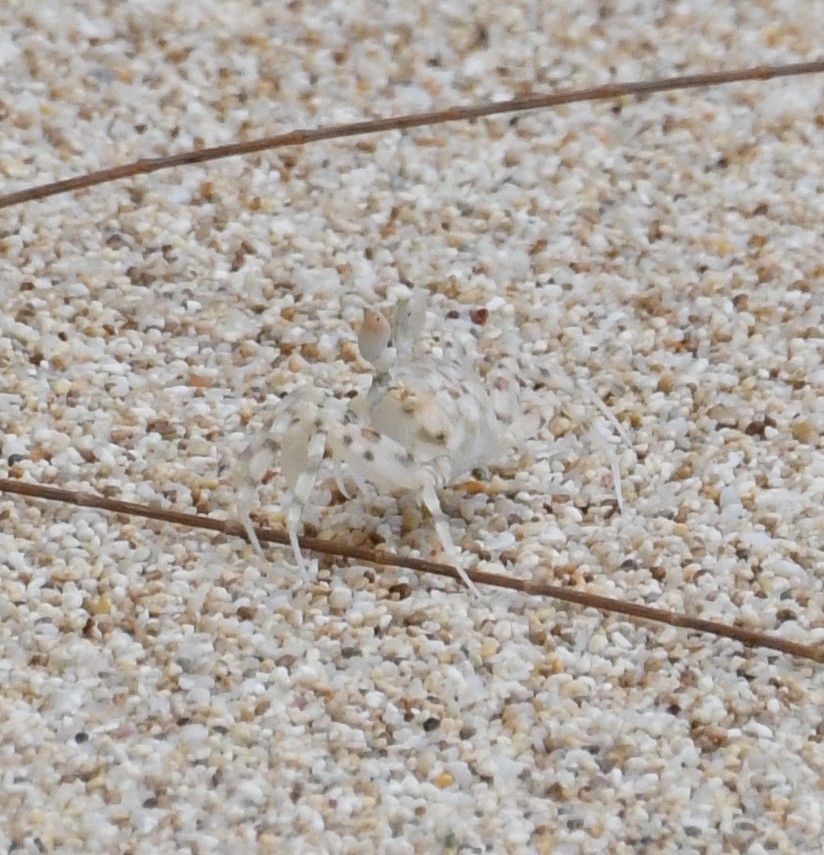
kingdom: Animalia
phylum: Arthropoda
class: Malacostraca
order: Decapoda
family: Ocypodidae
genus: Ocypode
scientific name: Ocypode pallidula
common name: Pallid ghost crab
